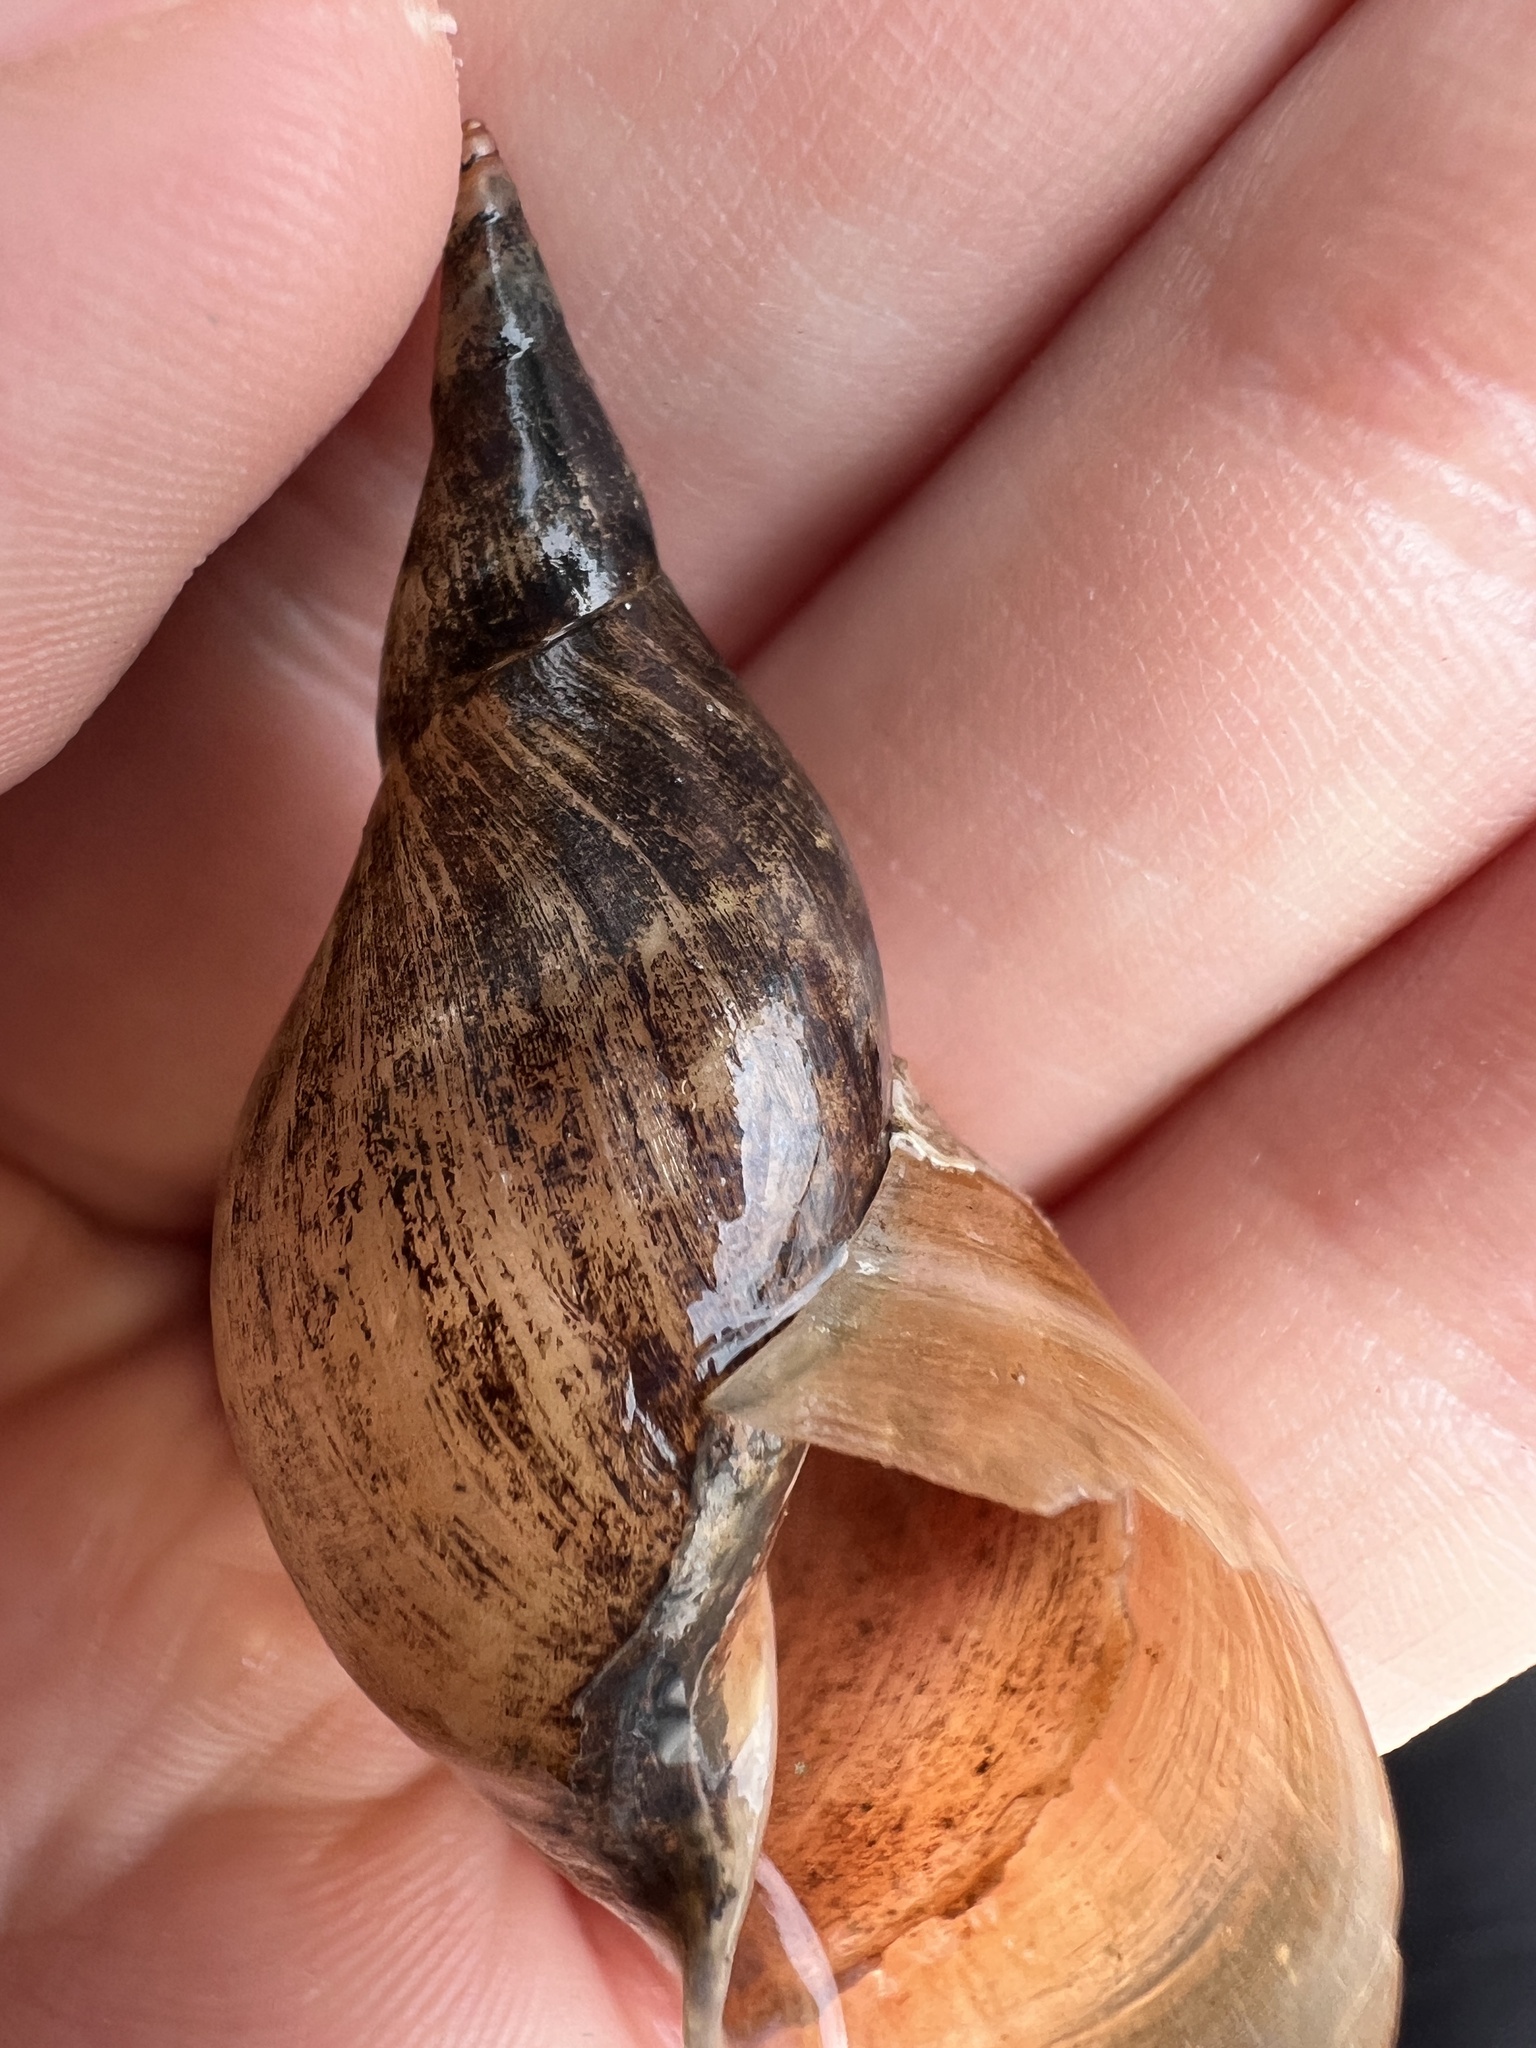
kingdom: Animalia
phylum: Mollusca
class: Gastropoda
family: Lymnaeidae
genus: Lymnaea
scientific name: Lymnaea stagnalis
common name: Great pond snail
